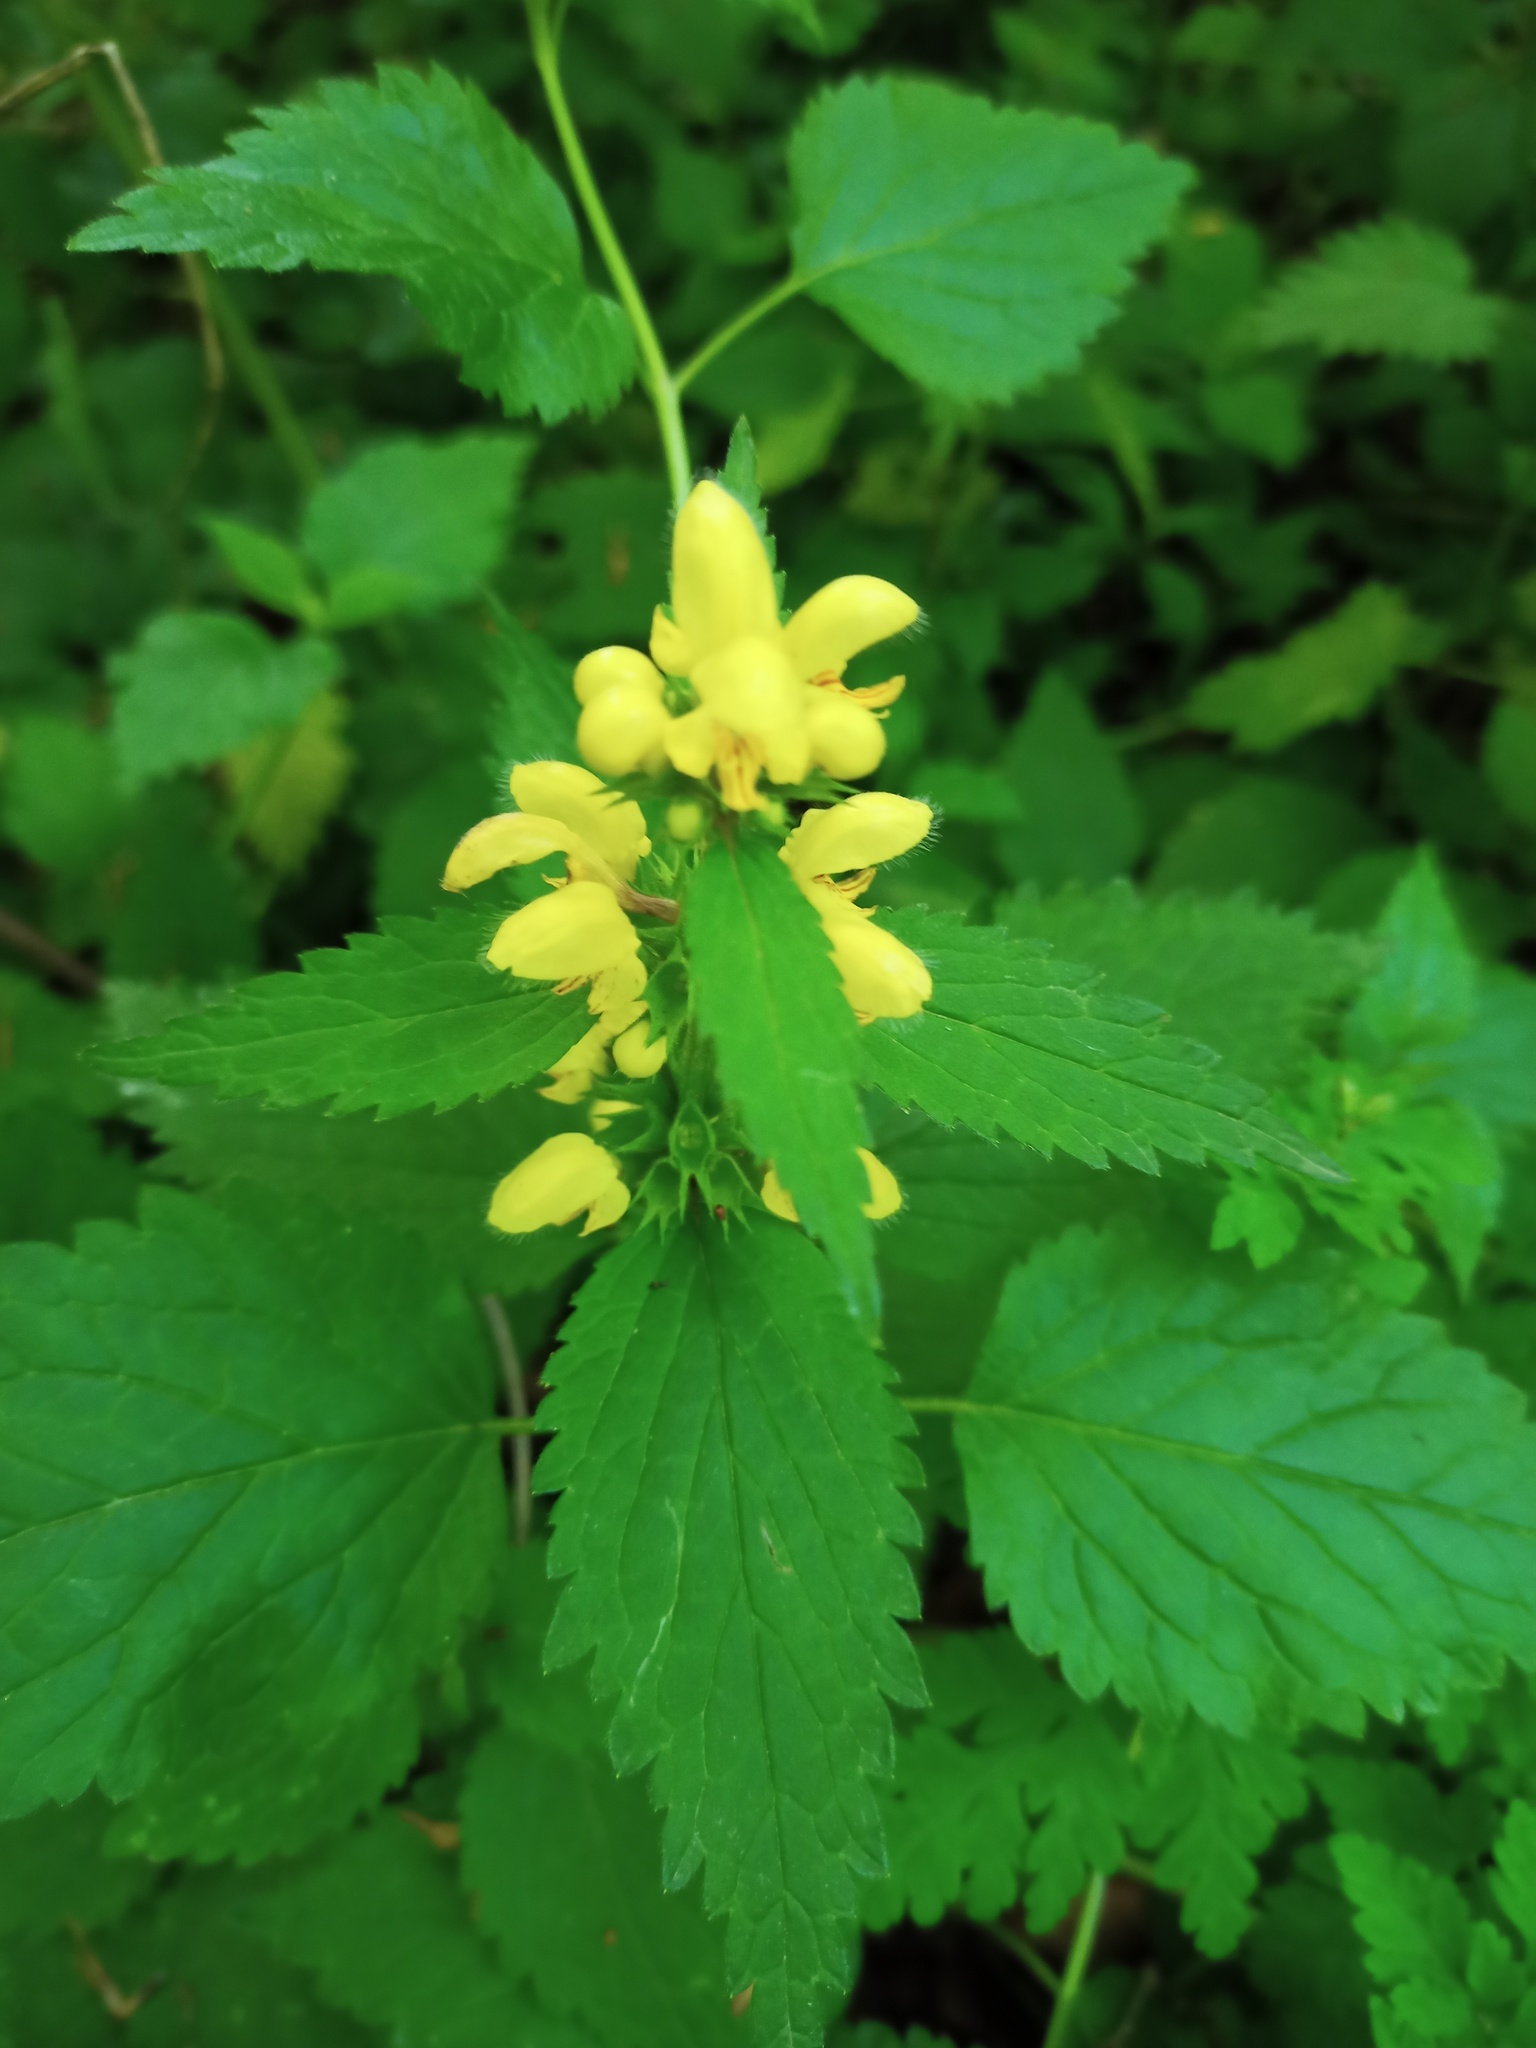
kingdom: Plantae
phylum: Tracheophyta
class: Magnoliopsida
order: Lamiales
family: Lamiaceae
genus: Lamium
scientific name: Lamium galeobdolon
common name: Yellow archangel
